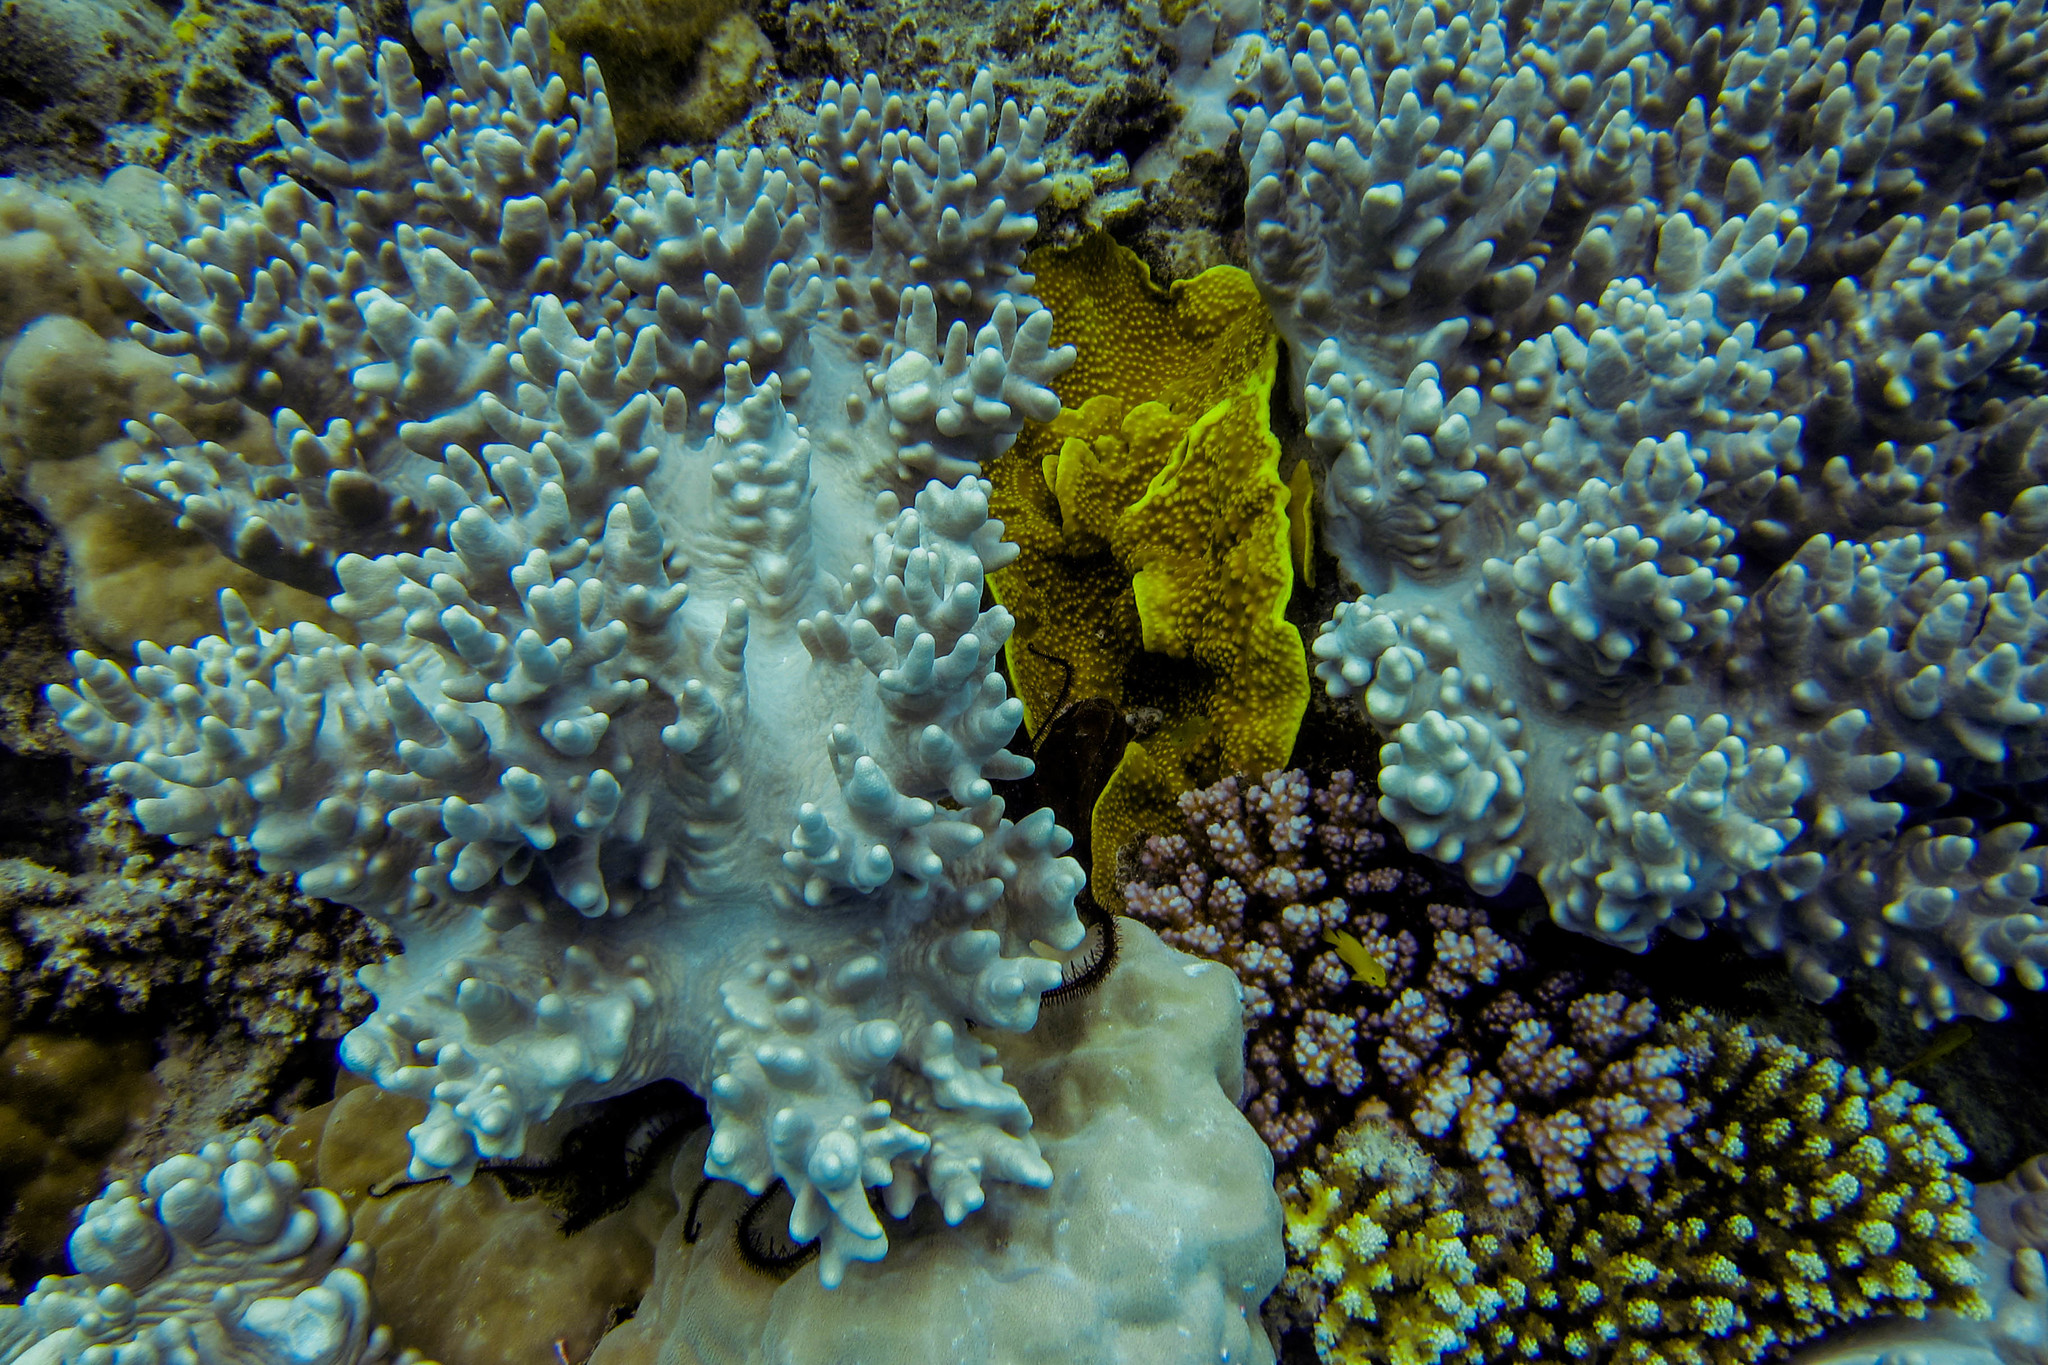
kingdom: Animalia
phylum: Cnidaria
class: Anthozoa
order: Scleractinia
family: Dendrophylliidae
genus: Turbinaria
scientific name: Turbinaria reniformis
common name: Disc coral
